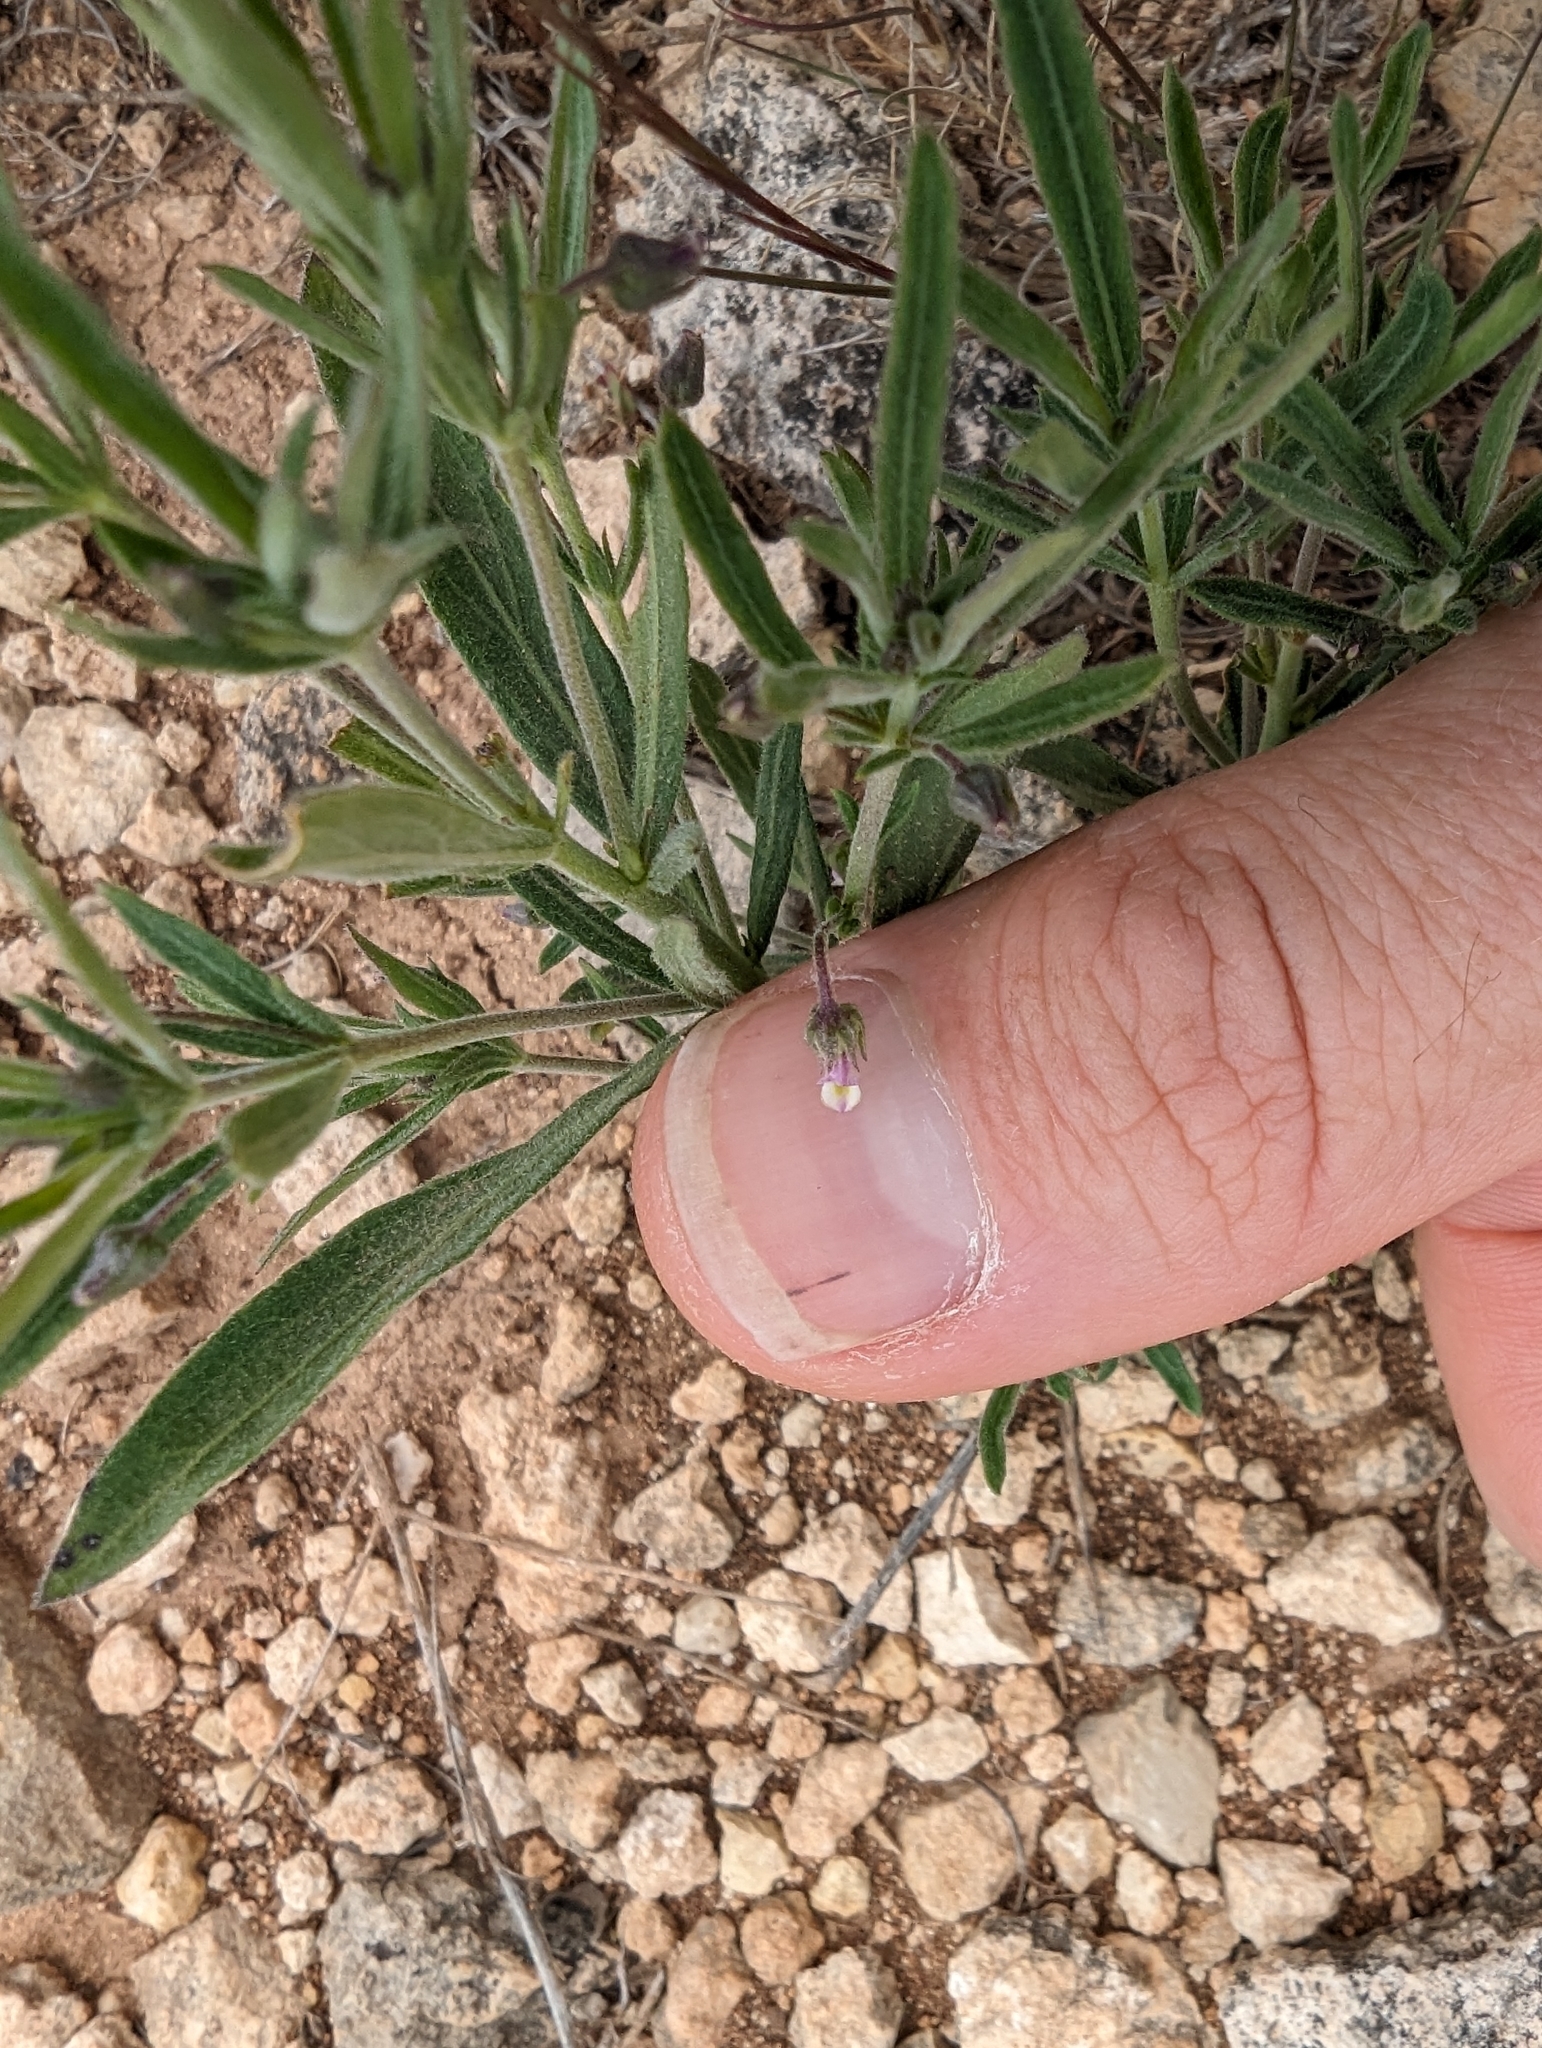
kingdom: Plantae
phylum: Tracheophyta
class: Magnoliopsida
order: Malpighiales
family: Violaceae
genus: Pombalia
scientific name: Pombalia verticillata
